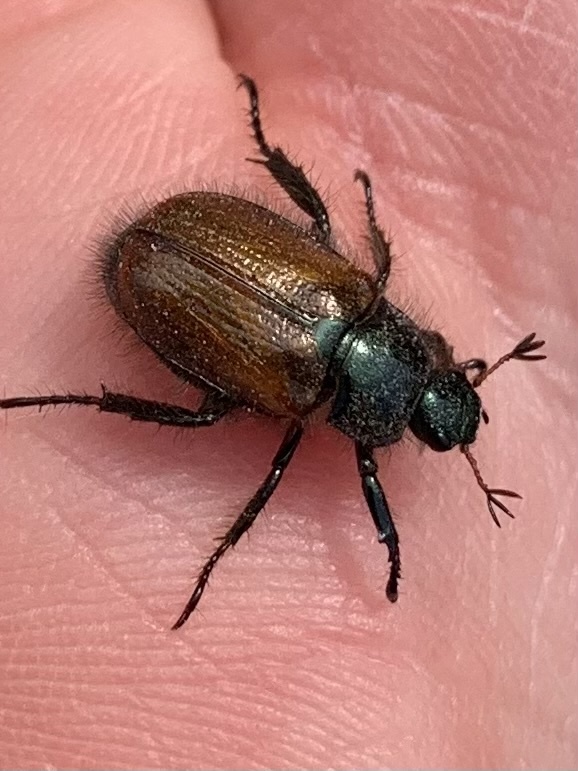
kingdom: Animalia
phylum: Arthropoda
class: Insecta
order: Coleoptera
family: Scarabaeidae
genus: Phyllopertha
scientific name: Phyllopertha horticola
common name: Garden chafer
